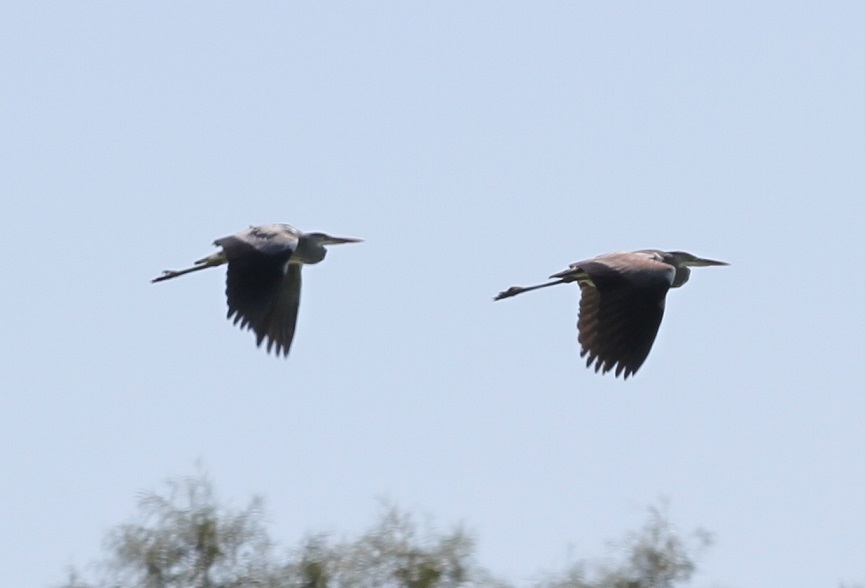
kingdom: Animalia
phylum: Chordata
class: Aves
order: Pelecaniformes
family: Ardeidae
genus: Ardea
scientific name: Ardea cinerea
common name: Grey heron
